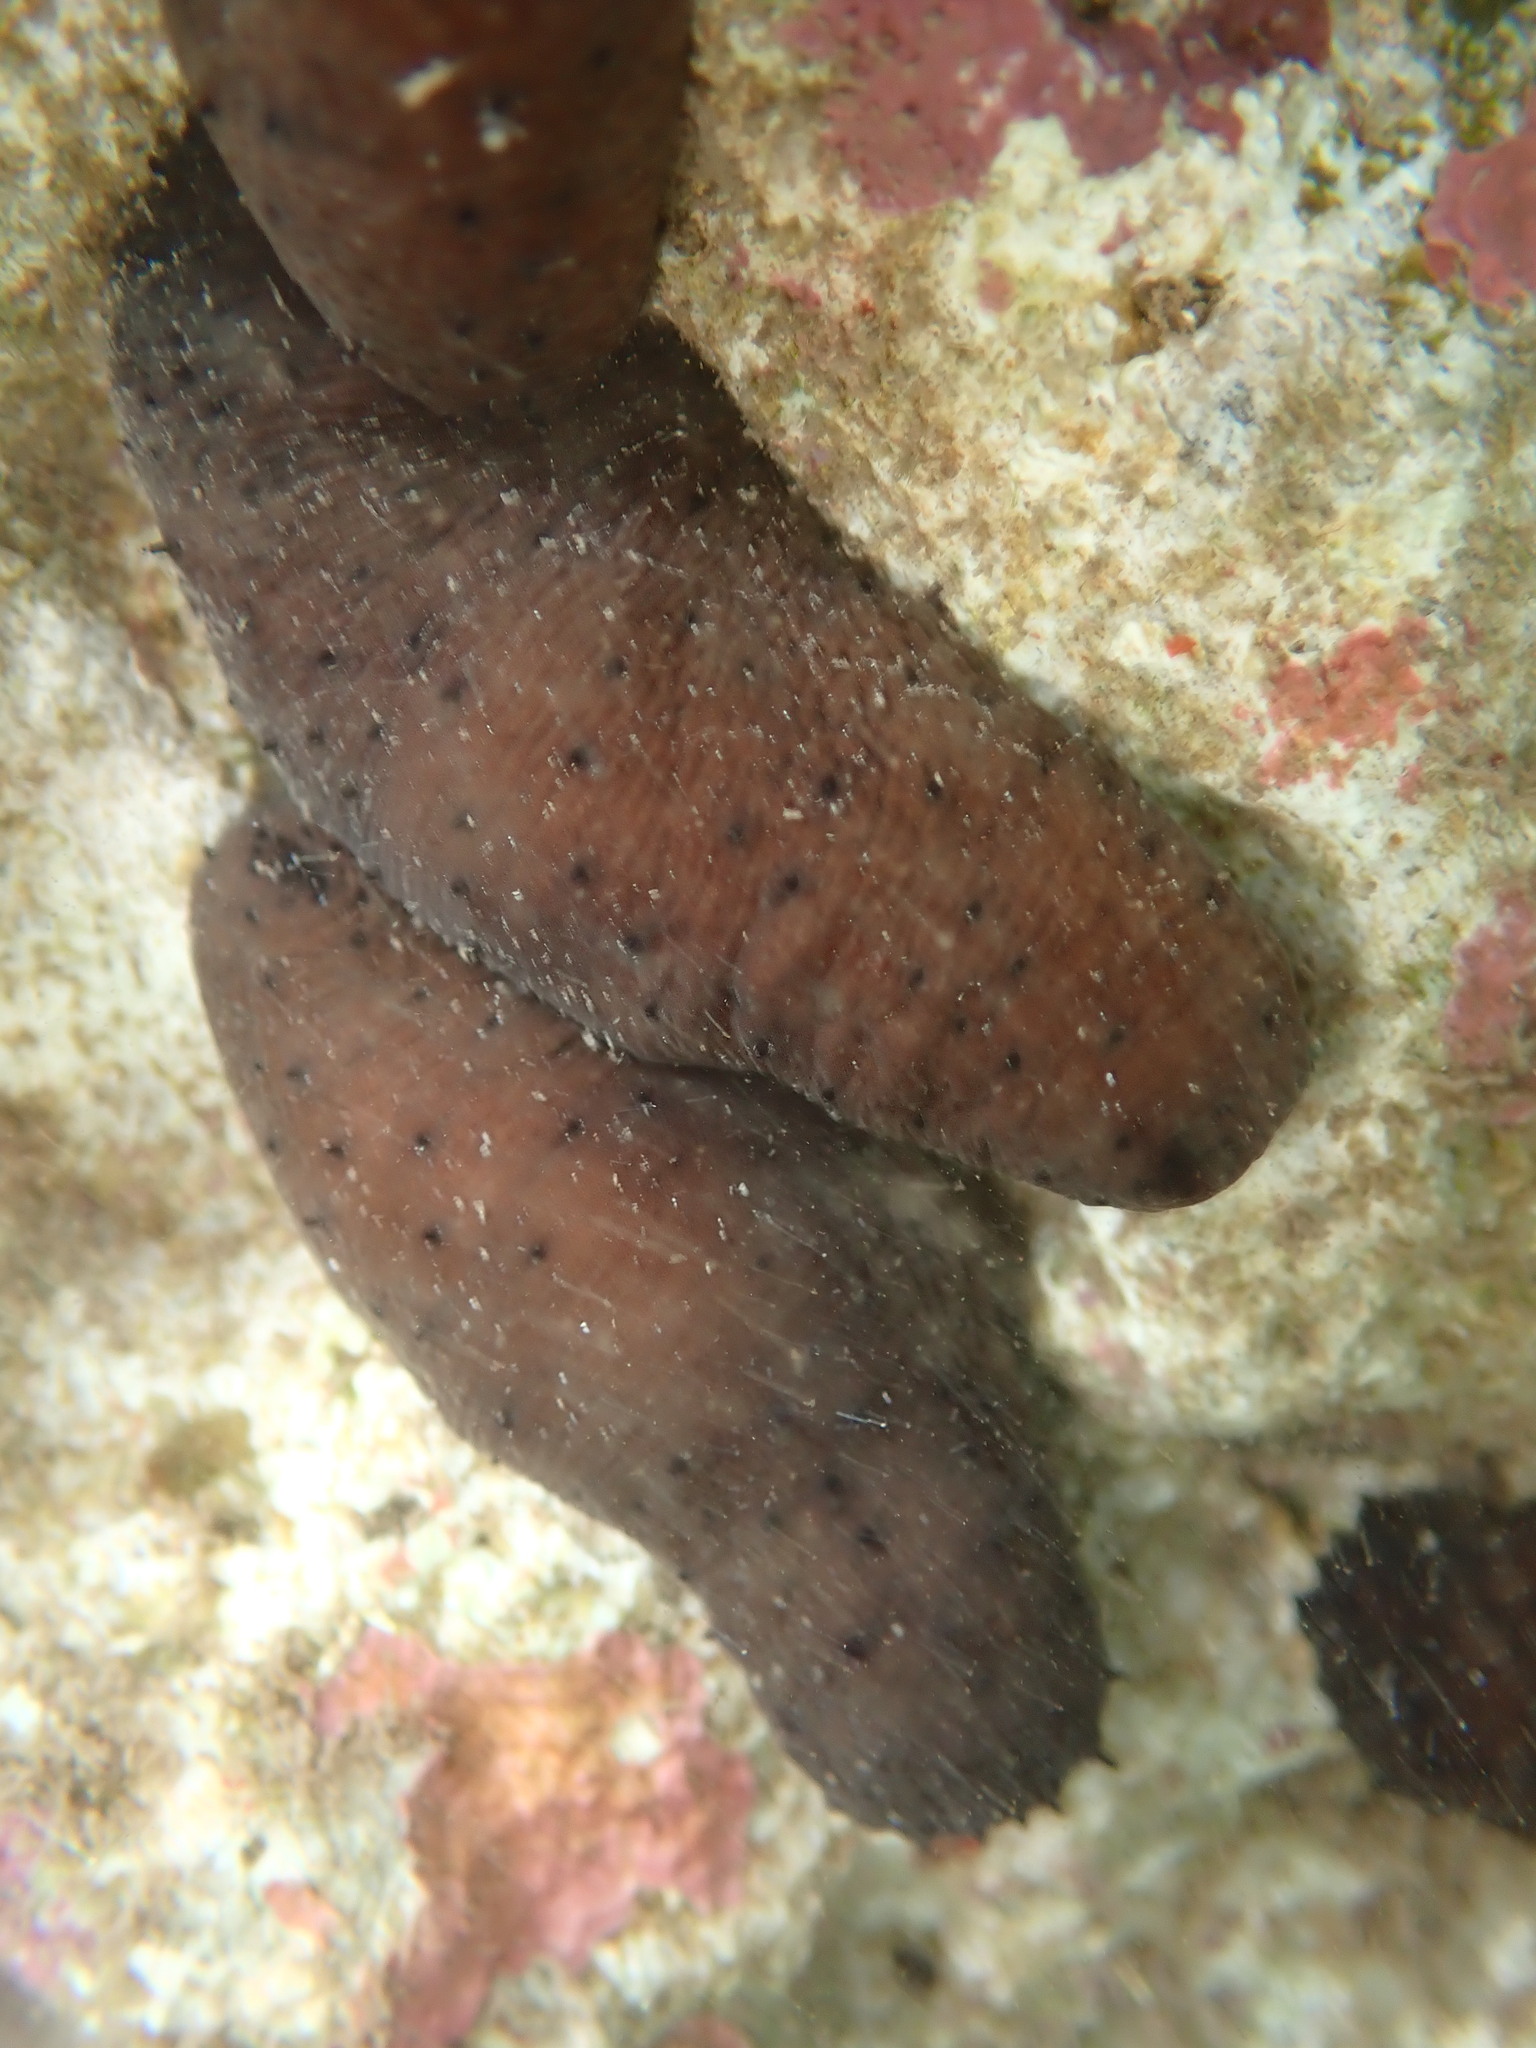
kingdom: Animalia
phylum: Echinodermata
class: Holothuroidea
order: Holothuriida
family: Holothuriidae
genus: Holothuria
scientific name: Holothuria difficilis
